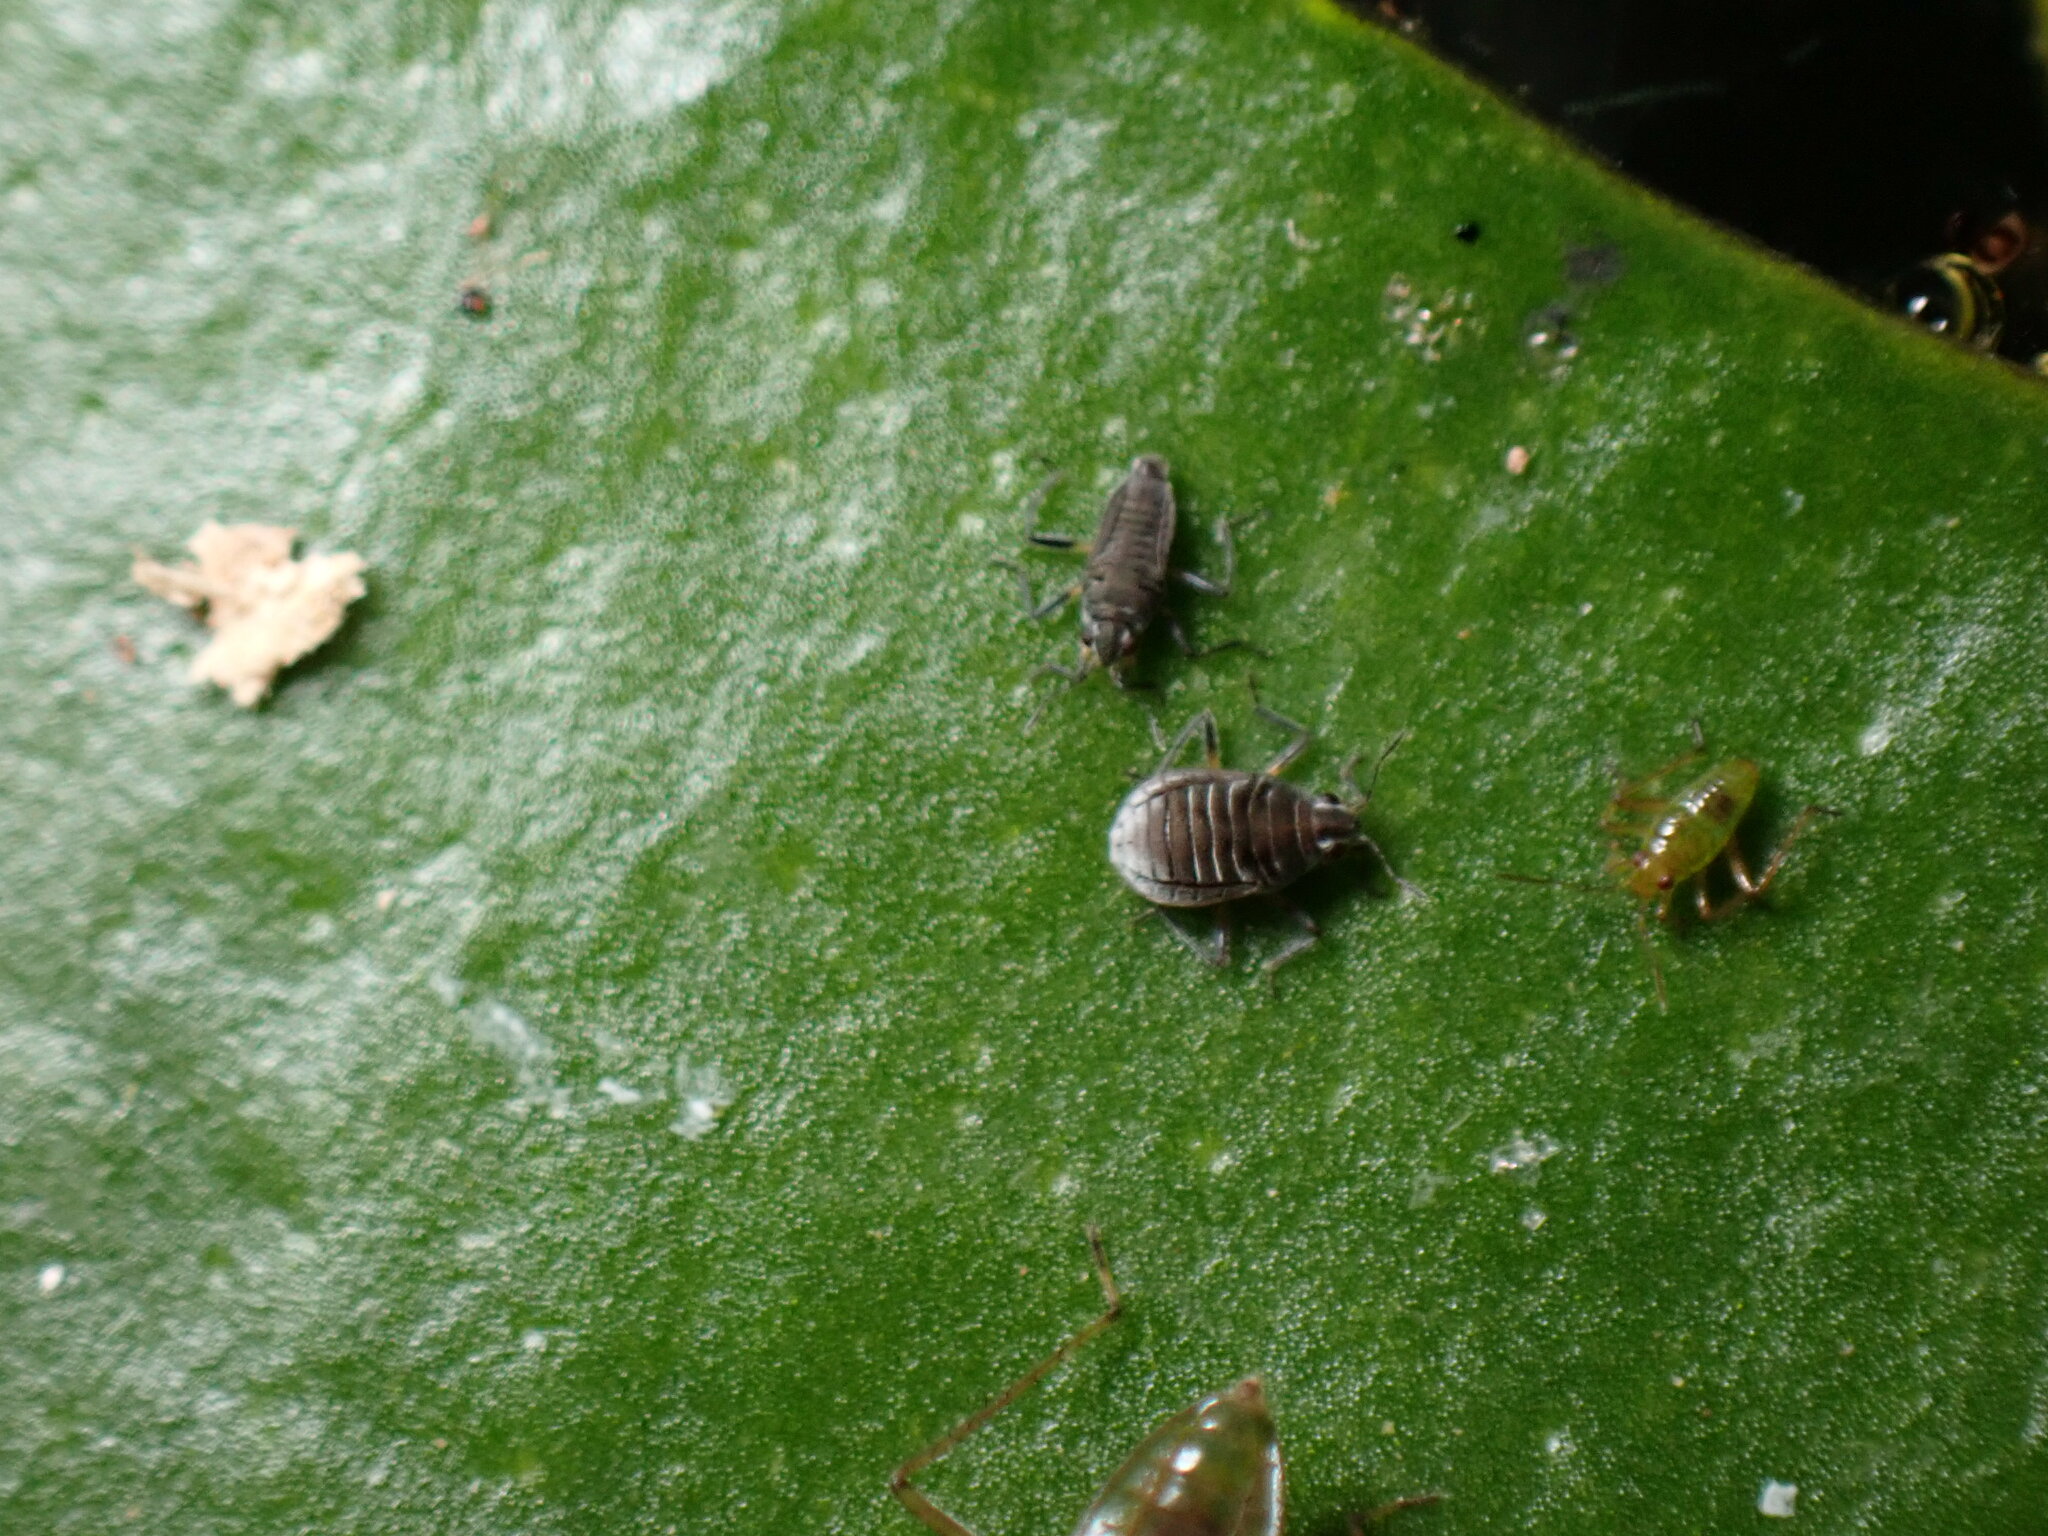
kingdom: Animalia
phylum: Arthropoda
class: Insecta
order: Hemiptera
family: Veliidae
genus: Microvelia
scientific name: Microvelia pulchella
